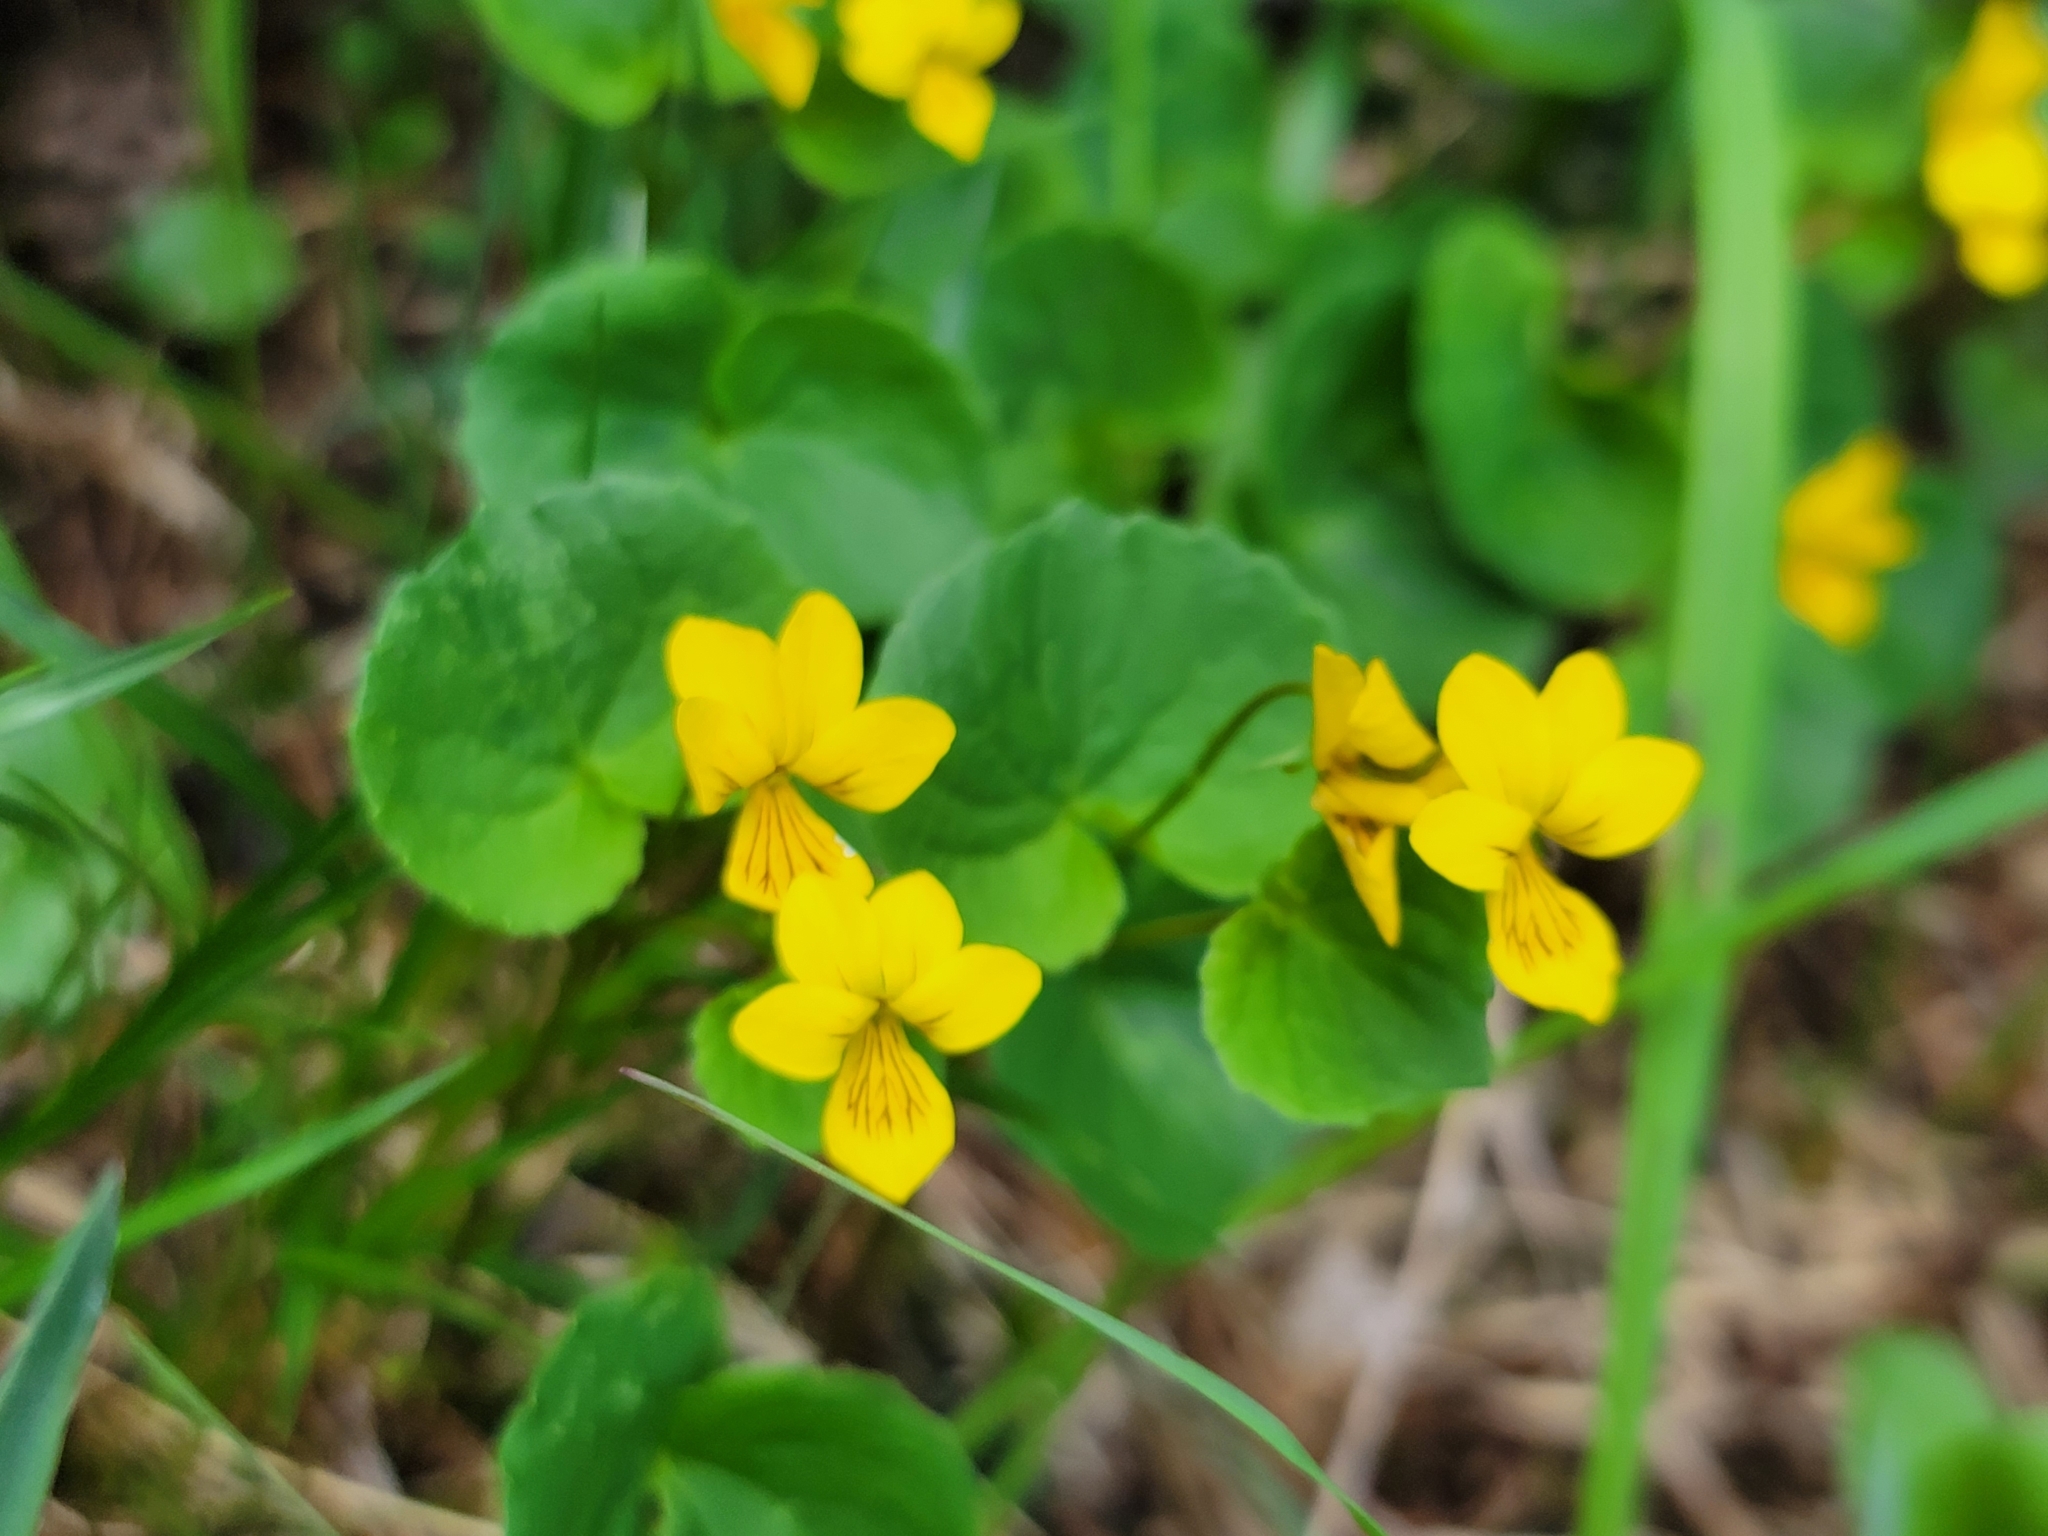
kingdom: Plantae
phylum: Tracheophyta
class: Magnoliopsida
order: Malpighiales
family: Violaceae
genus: Viola
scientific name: Viola biflora
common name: Alpine yellow violet
